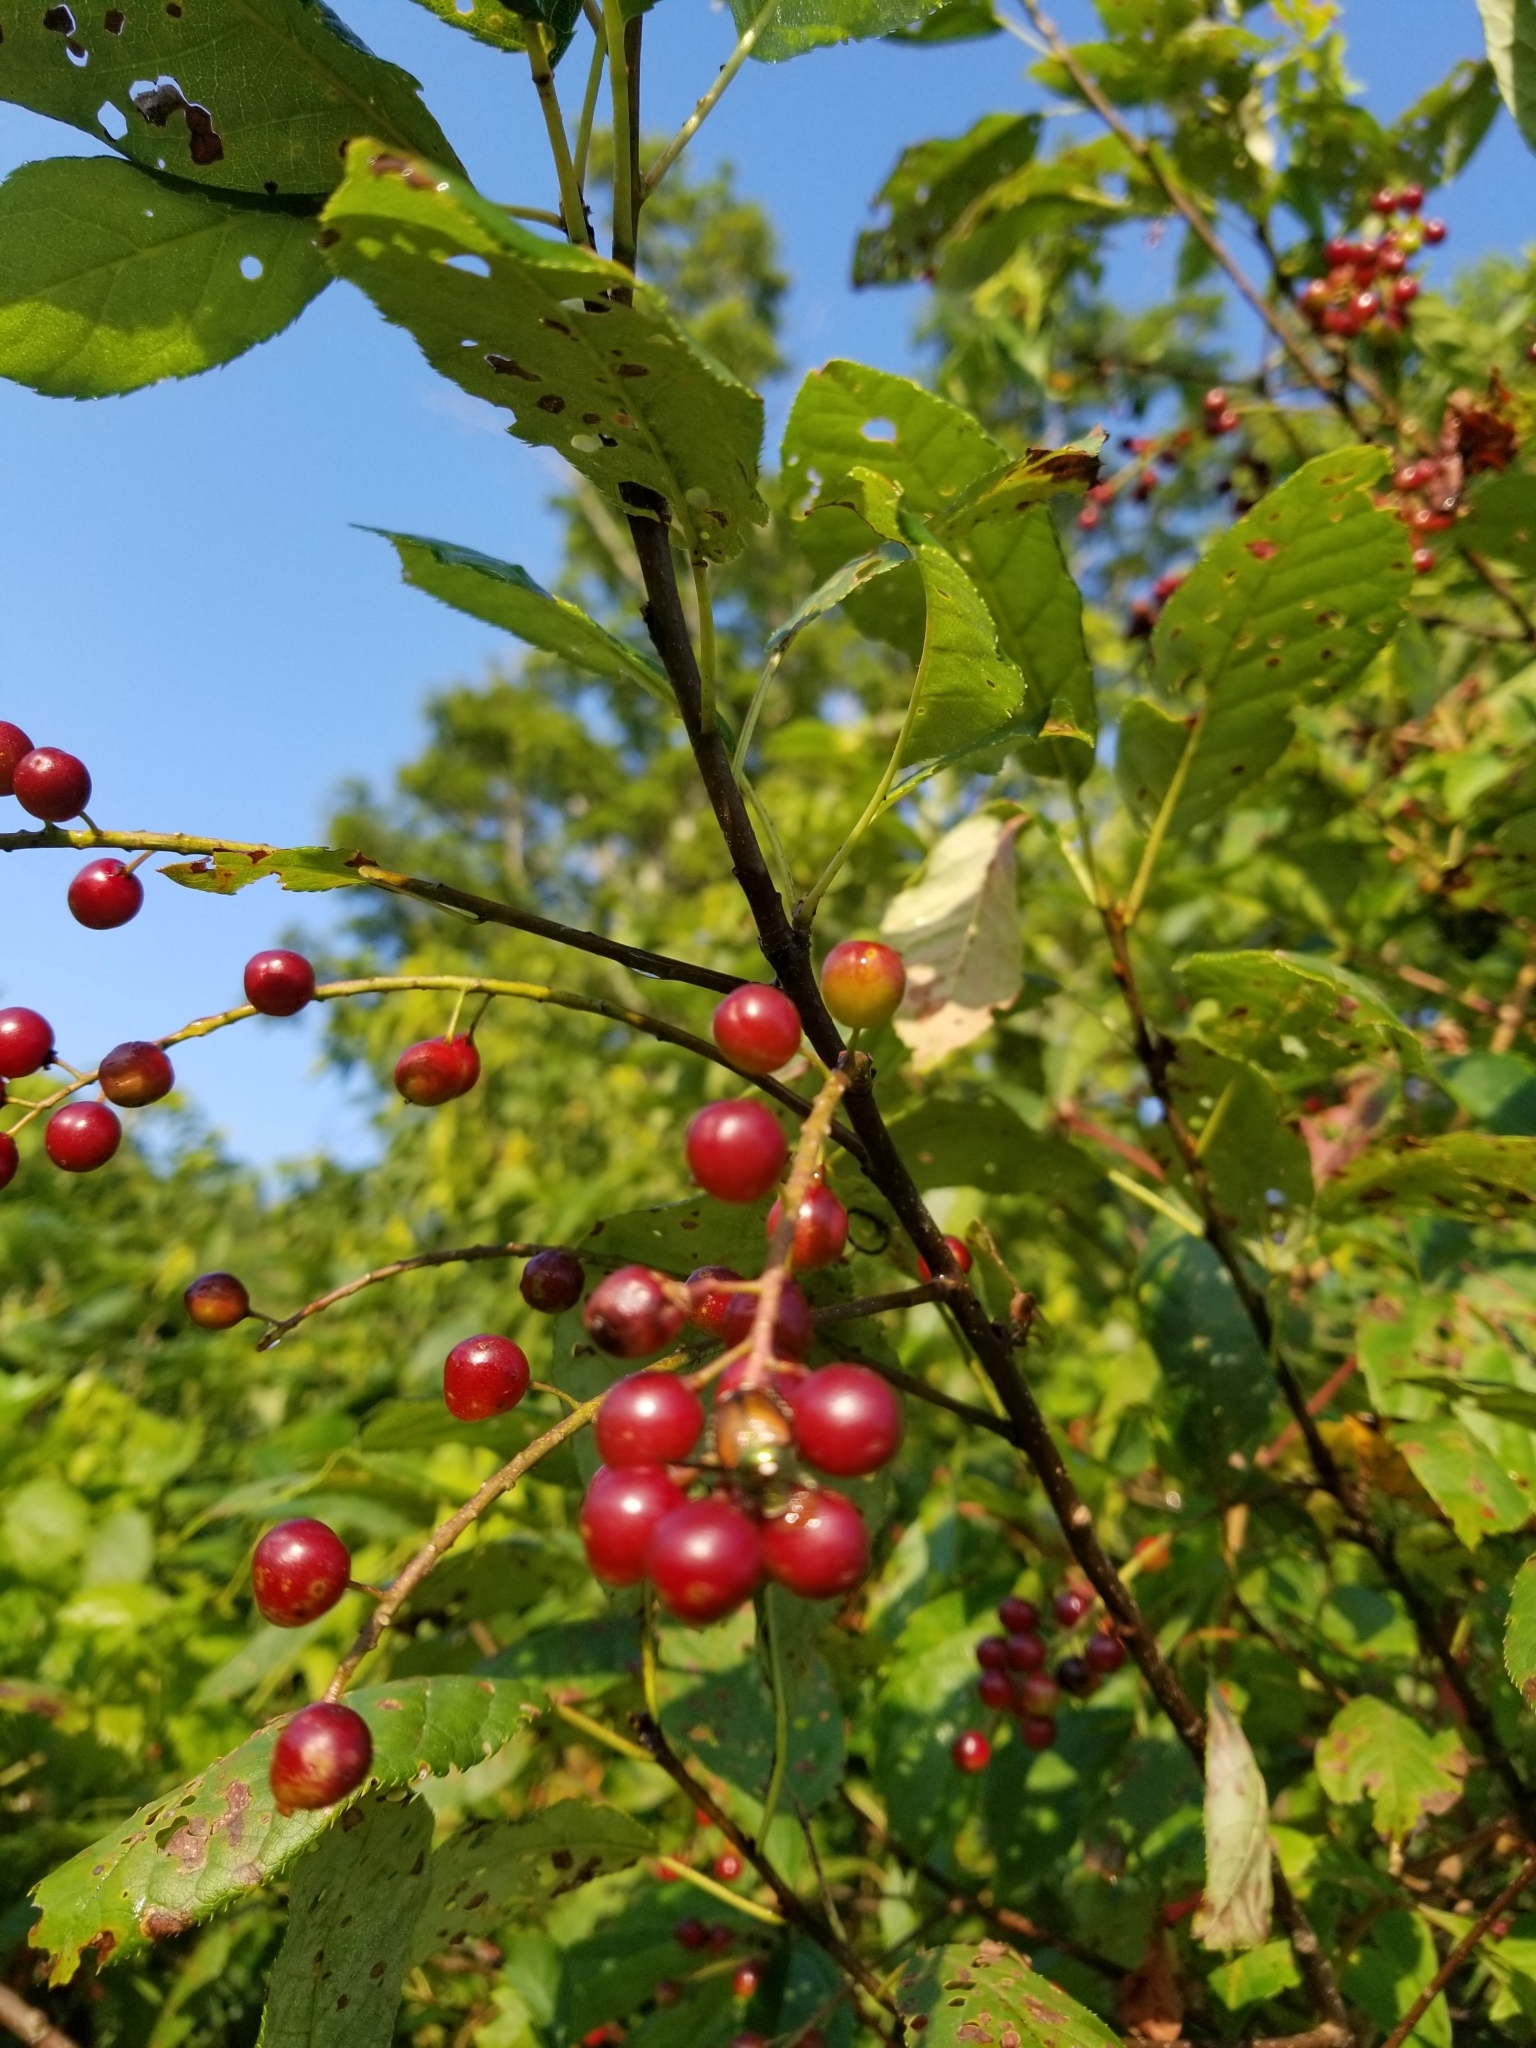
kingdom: Plantae
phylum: Tracheophyta
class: Magnoliopsida
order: Rosales
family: Rosaceae
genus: Prunus
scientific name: Prunus virginiana
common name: Chokecherry
